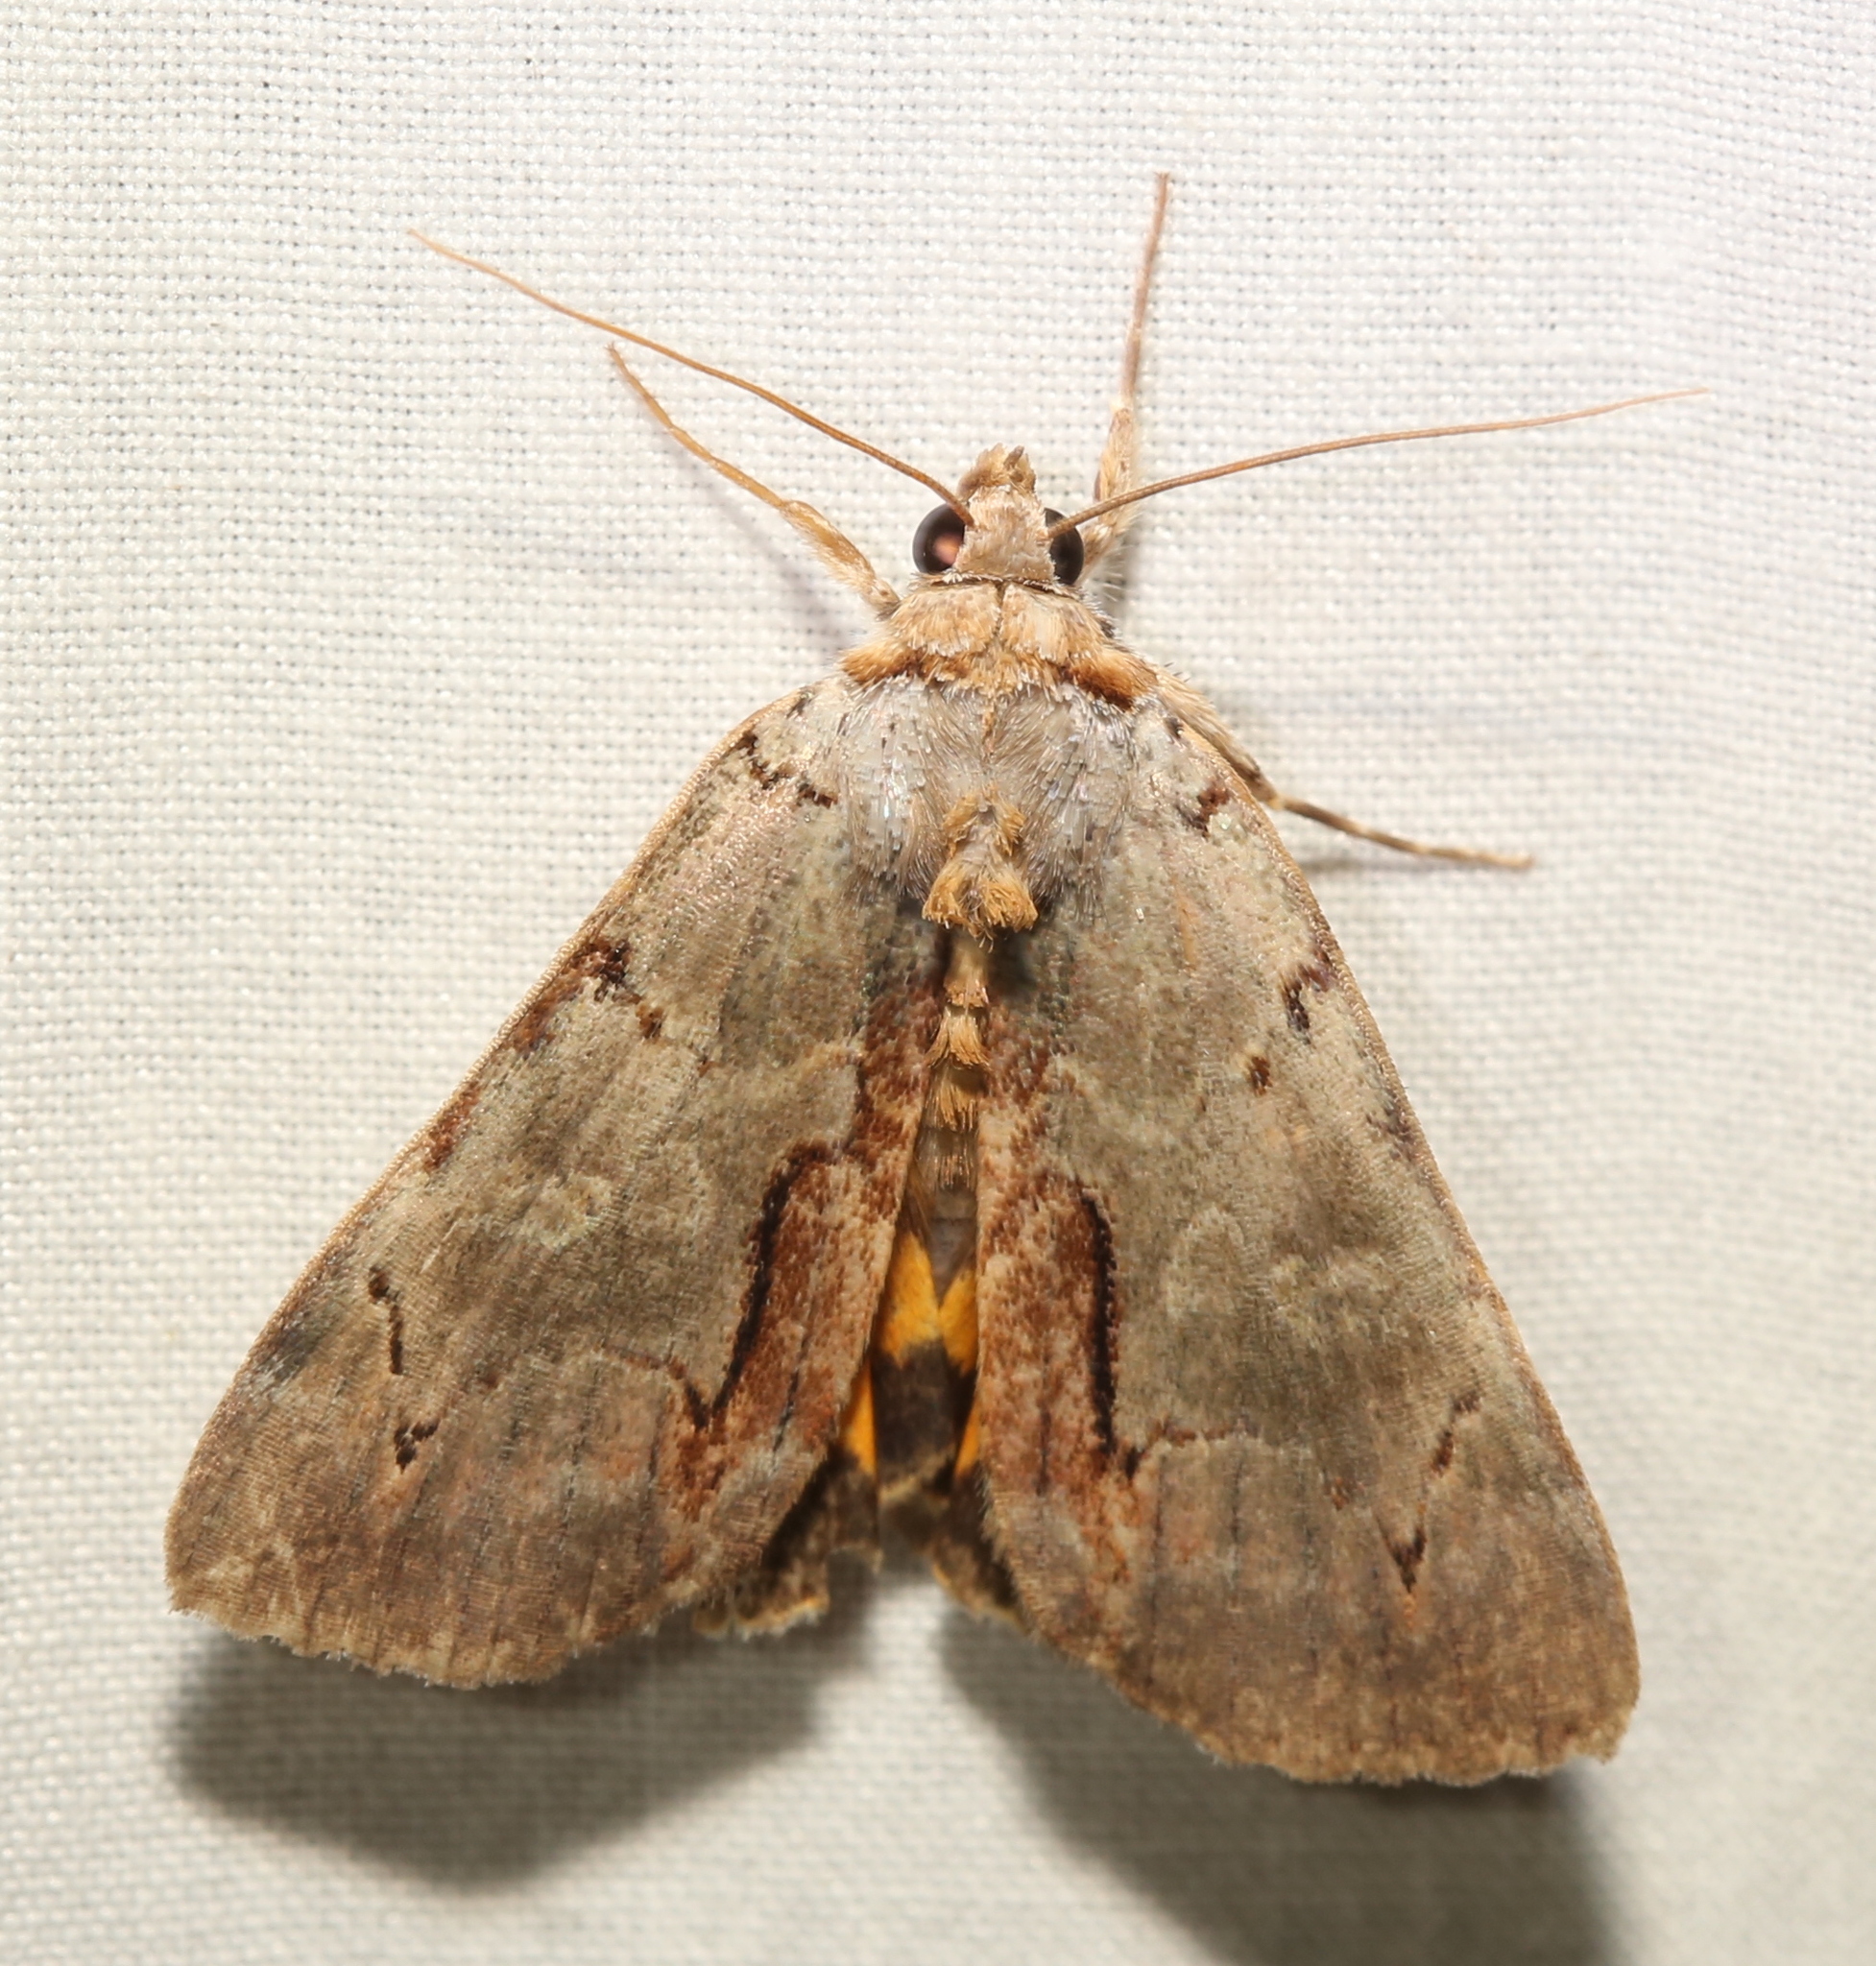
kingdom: Animalia
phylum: Arthropoda
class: Insecta
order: Lepidoptera
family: Erebidae
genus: Catocala
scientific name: Catocala grynea
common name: Woody underwing
